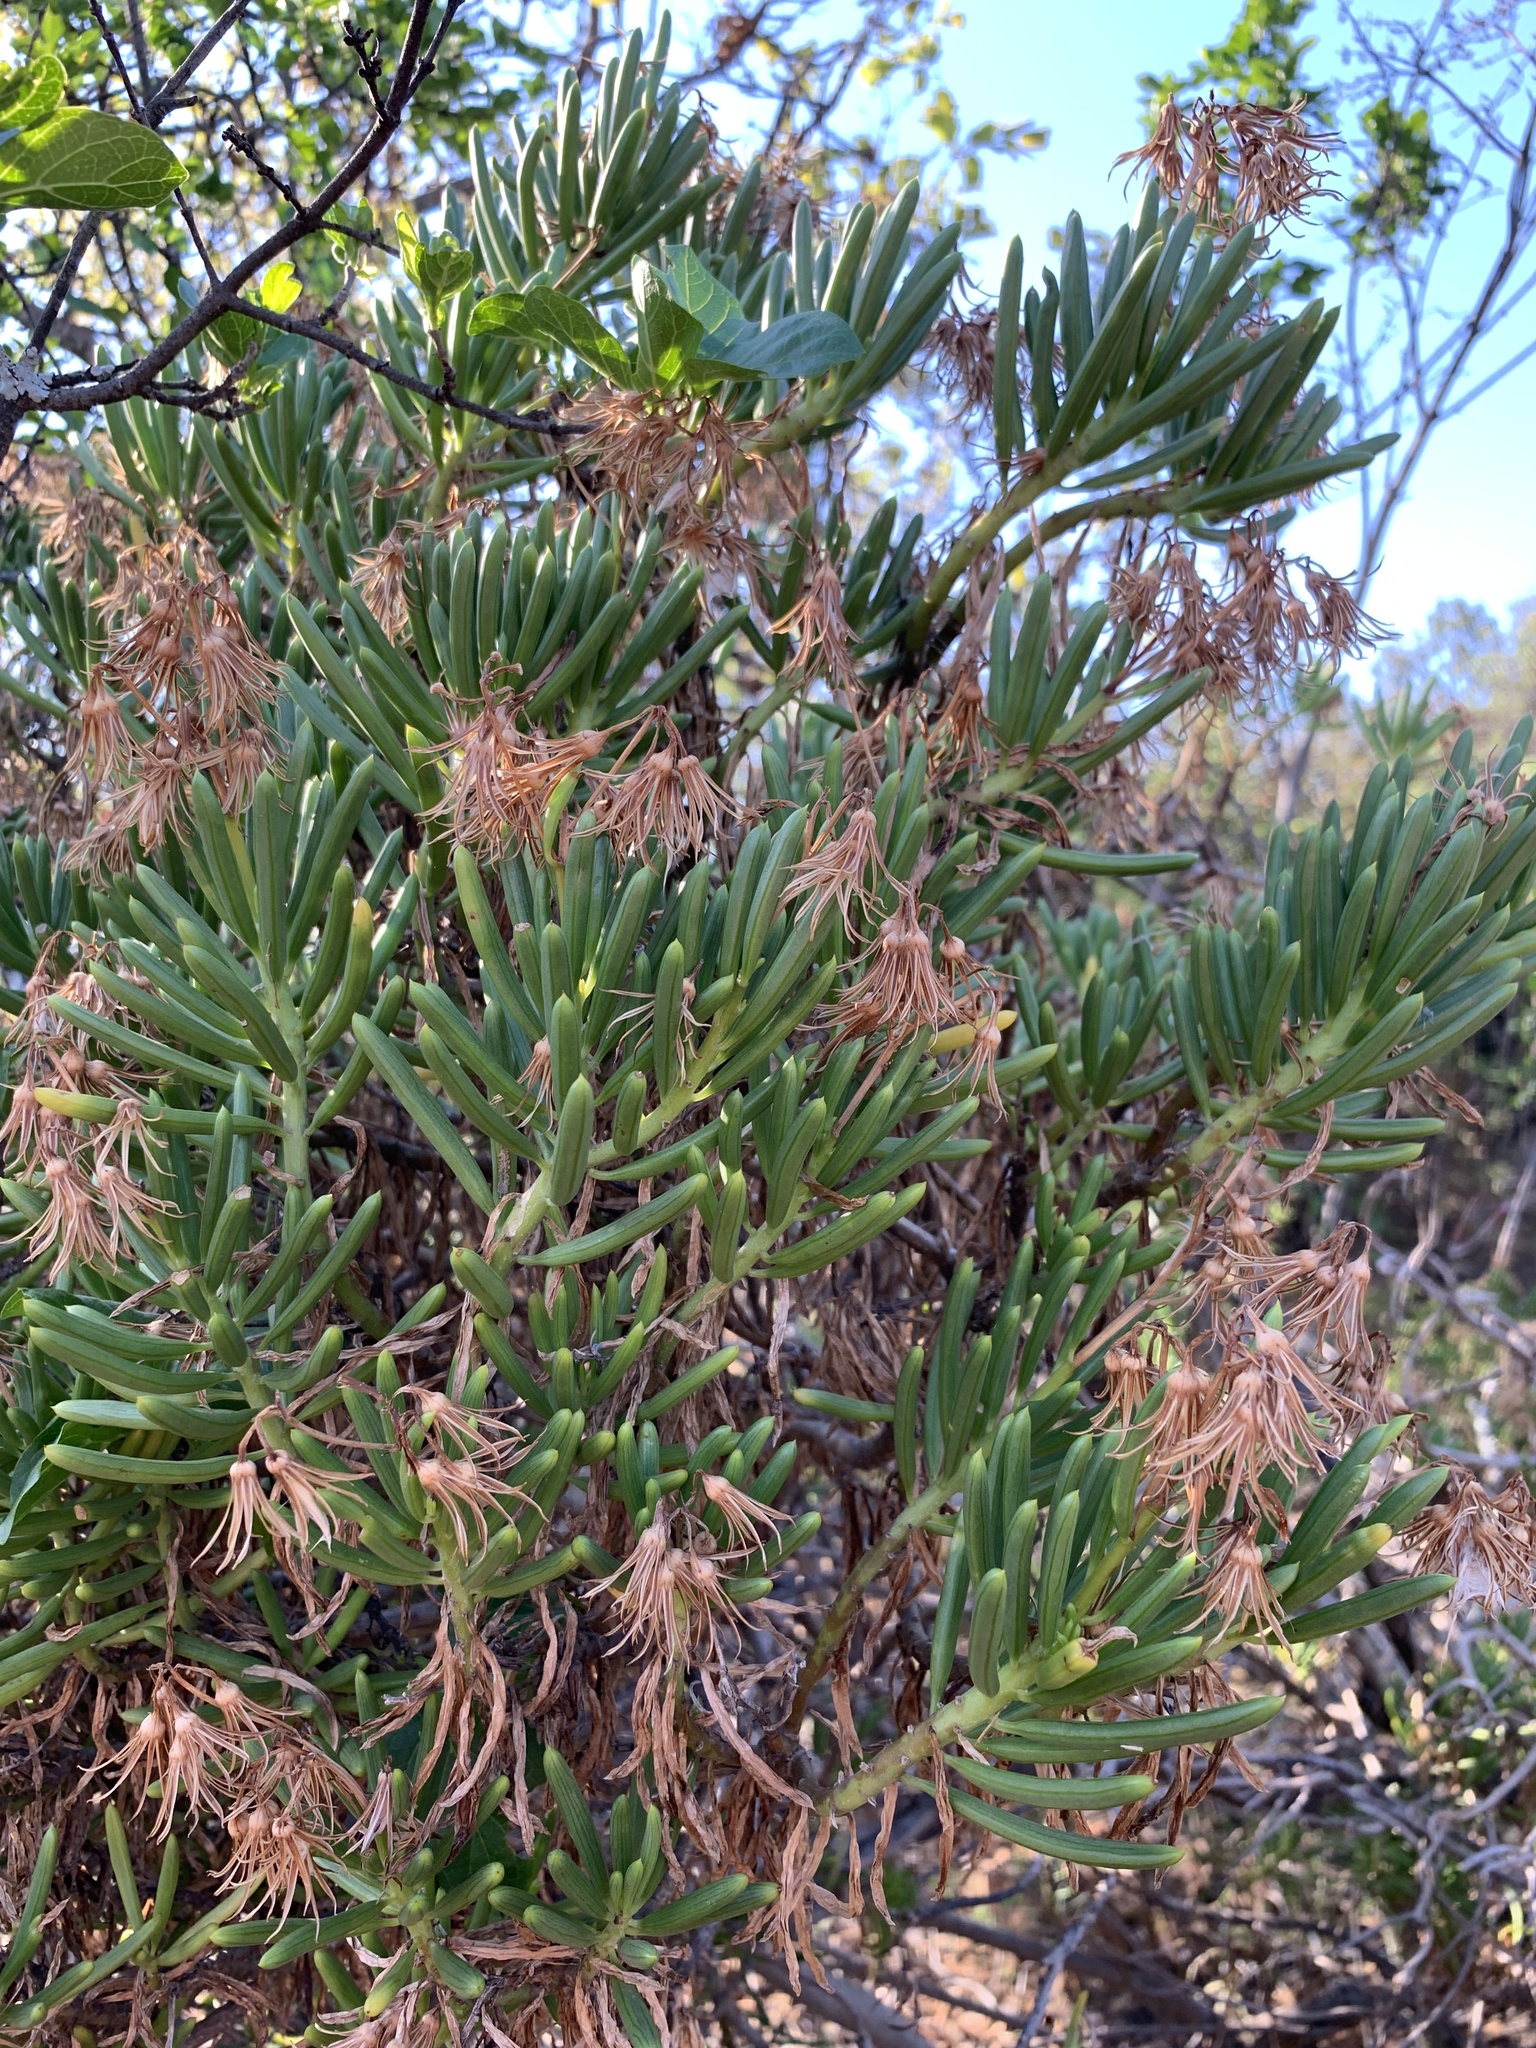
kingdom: Plantae
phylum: Tracheophyta
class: Magnoliopsida
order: Asterales
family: Asteraceae
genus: Kleinia
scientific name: Kleinia barbertonica
